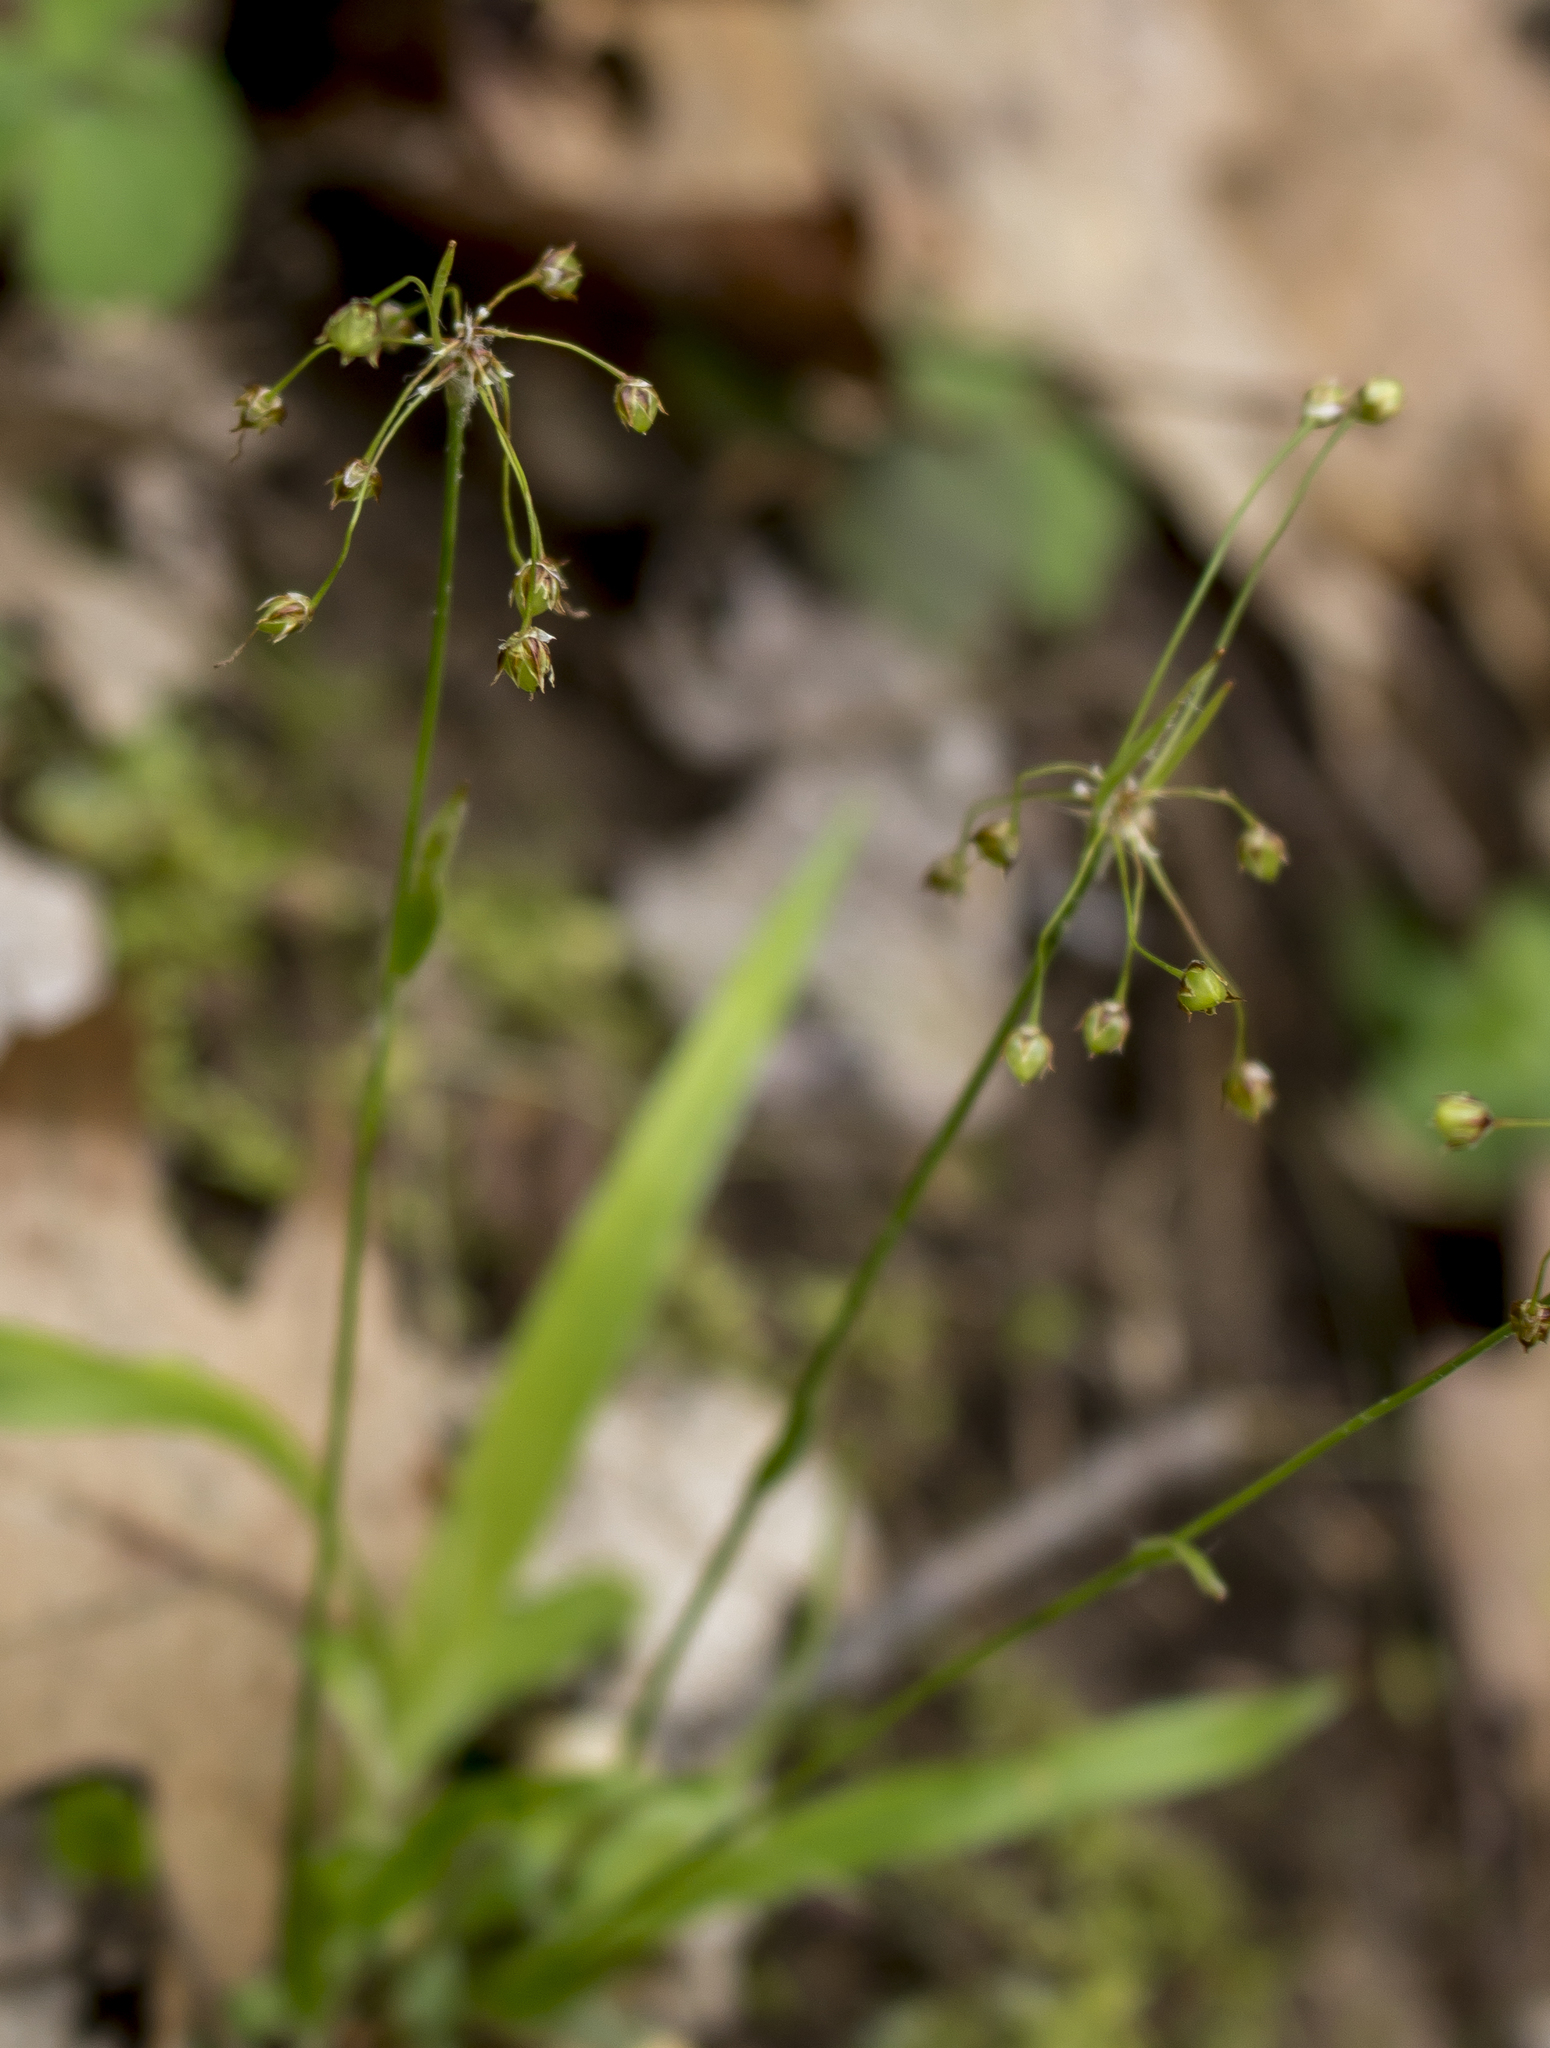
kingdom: Plantae
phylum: Tracheophyta
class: Liliopsida
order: Poales
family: Juncaceae
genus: Luzula
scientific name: Luzula acuminata
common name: Hairy woodrush
